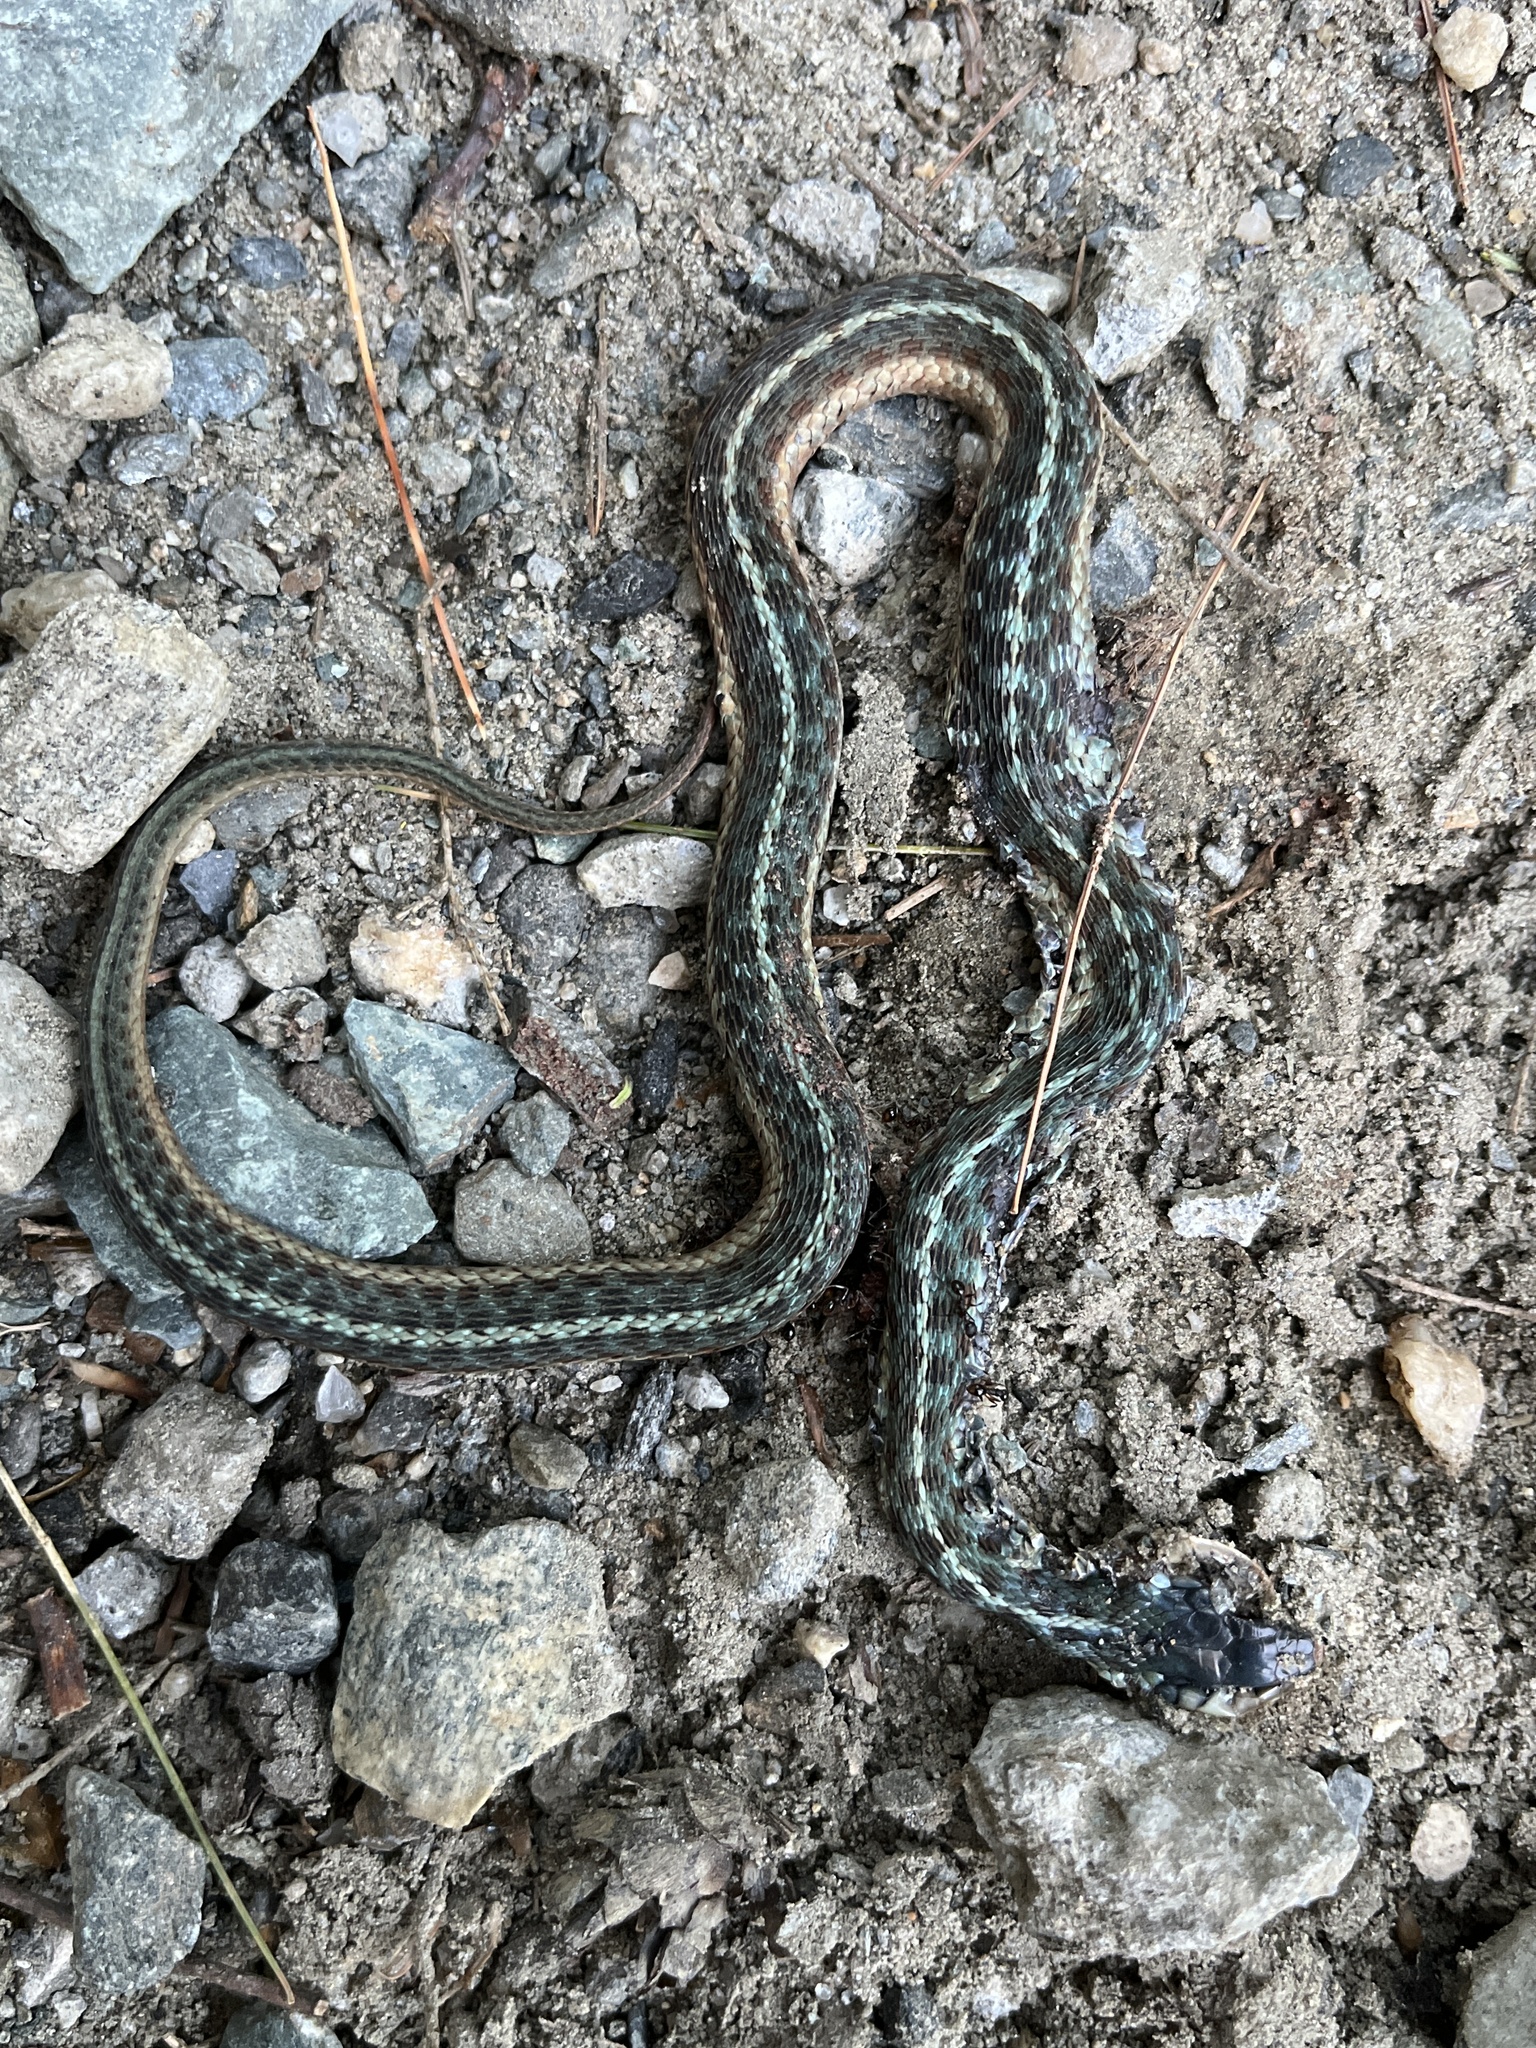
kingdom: Animalia
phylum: Chordata
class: Squamata
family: Colubridae
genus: Thamnophis
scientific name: Thamnophis sirtalis
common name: Common garter snake
